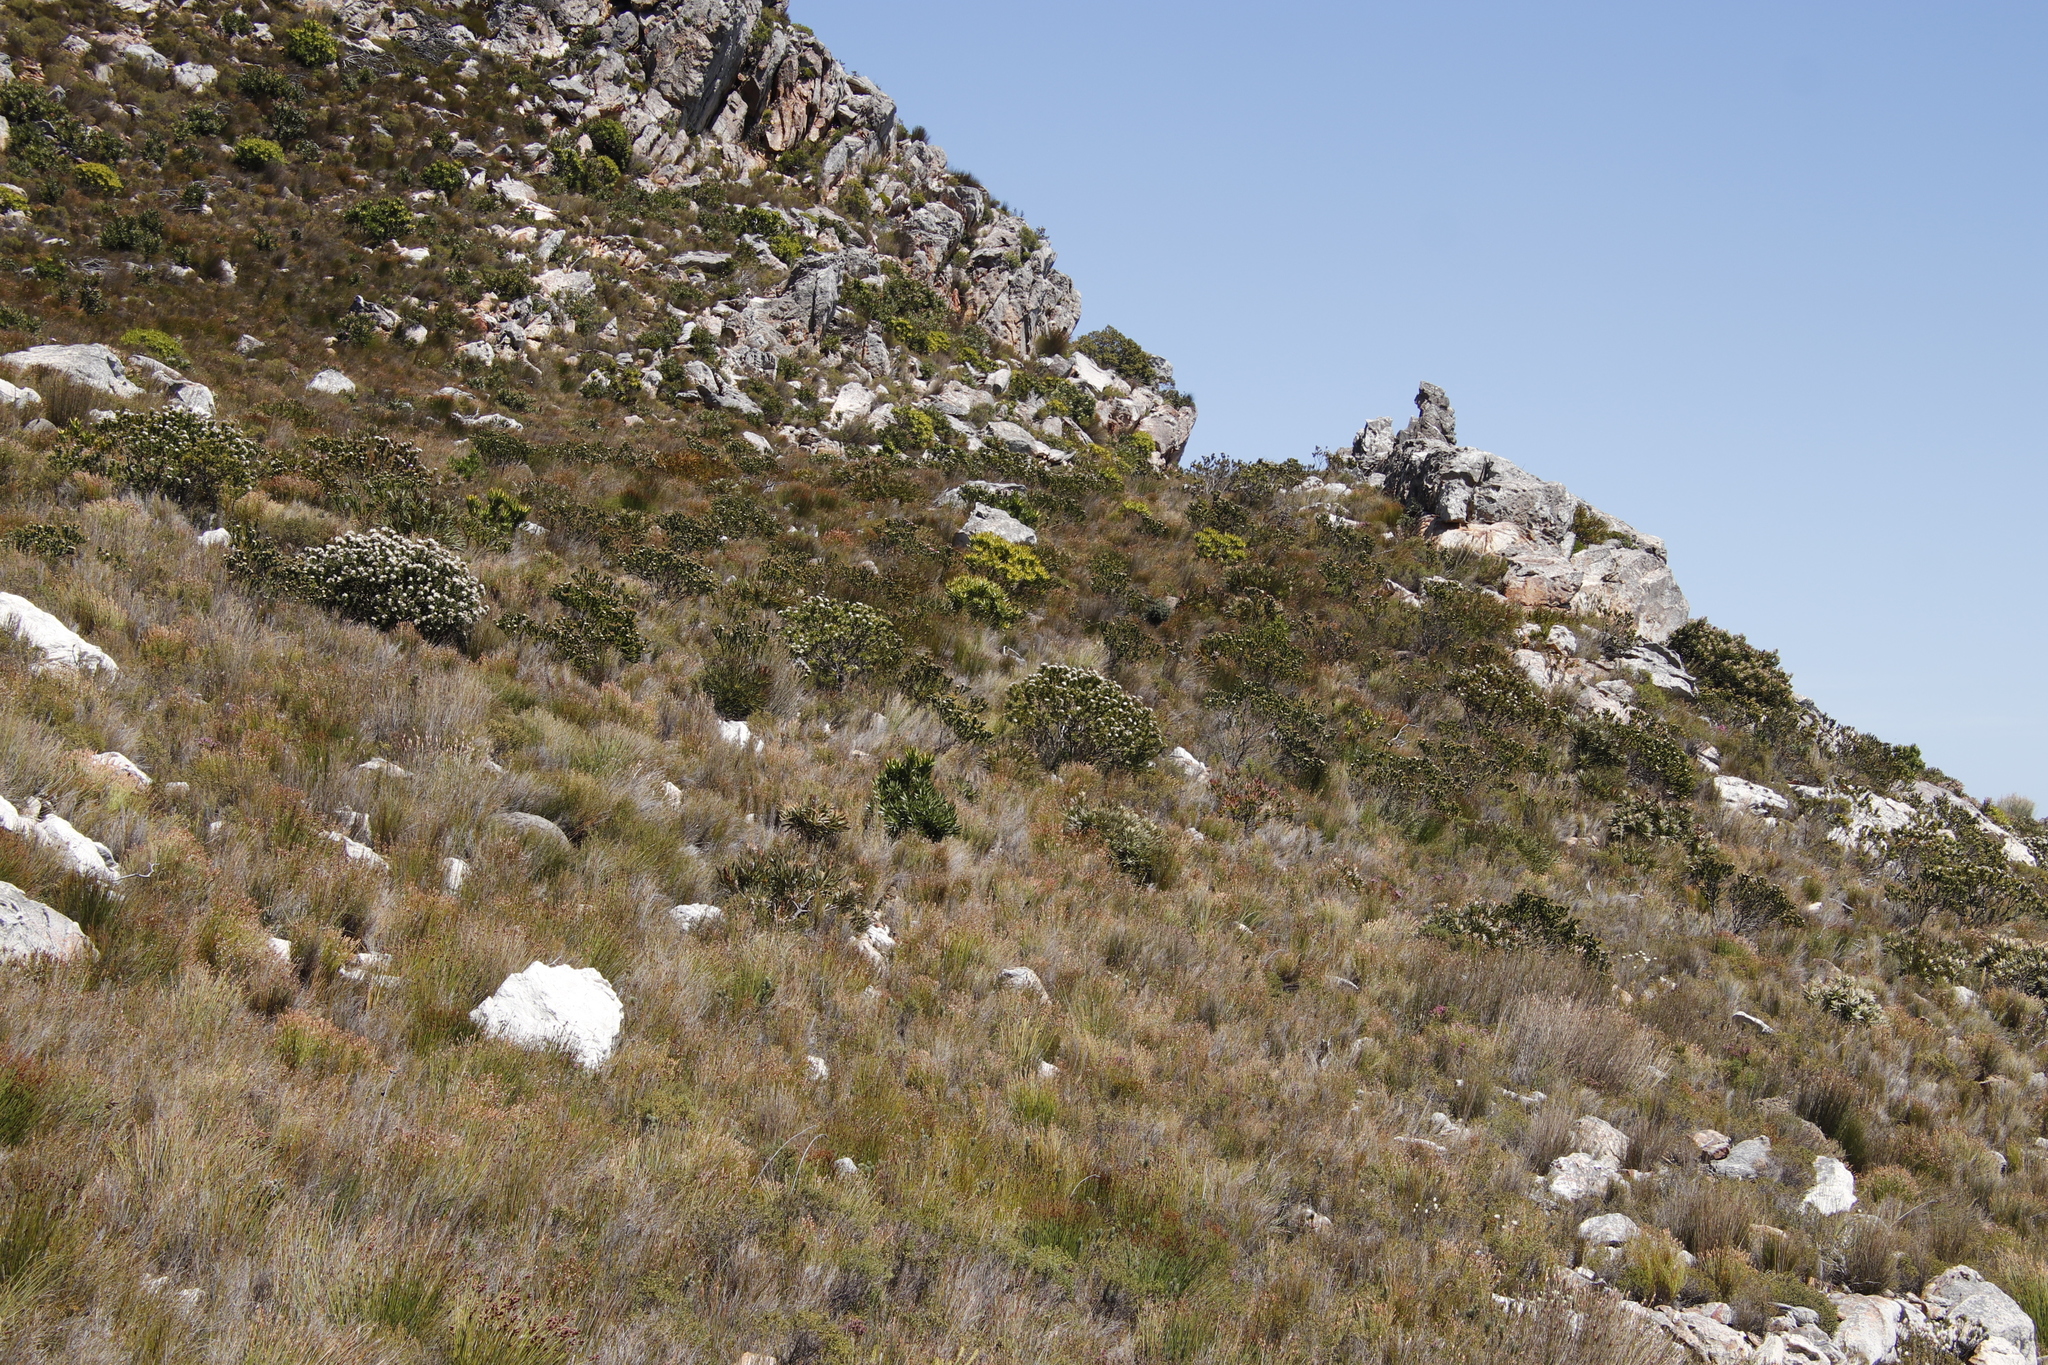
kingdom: Plantae
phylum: Tracheophyta
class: Magnoliopsida
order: Proteales
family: Proteaceae
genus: Leucospermum
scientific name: Leucospermum bolusii
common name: Gordon's bay pincushion
